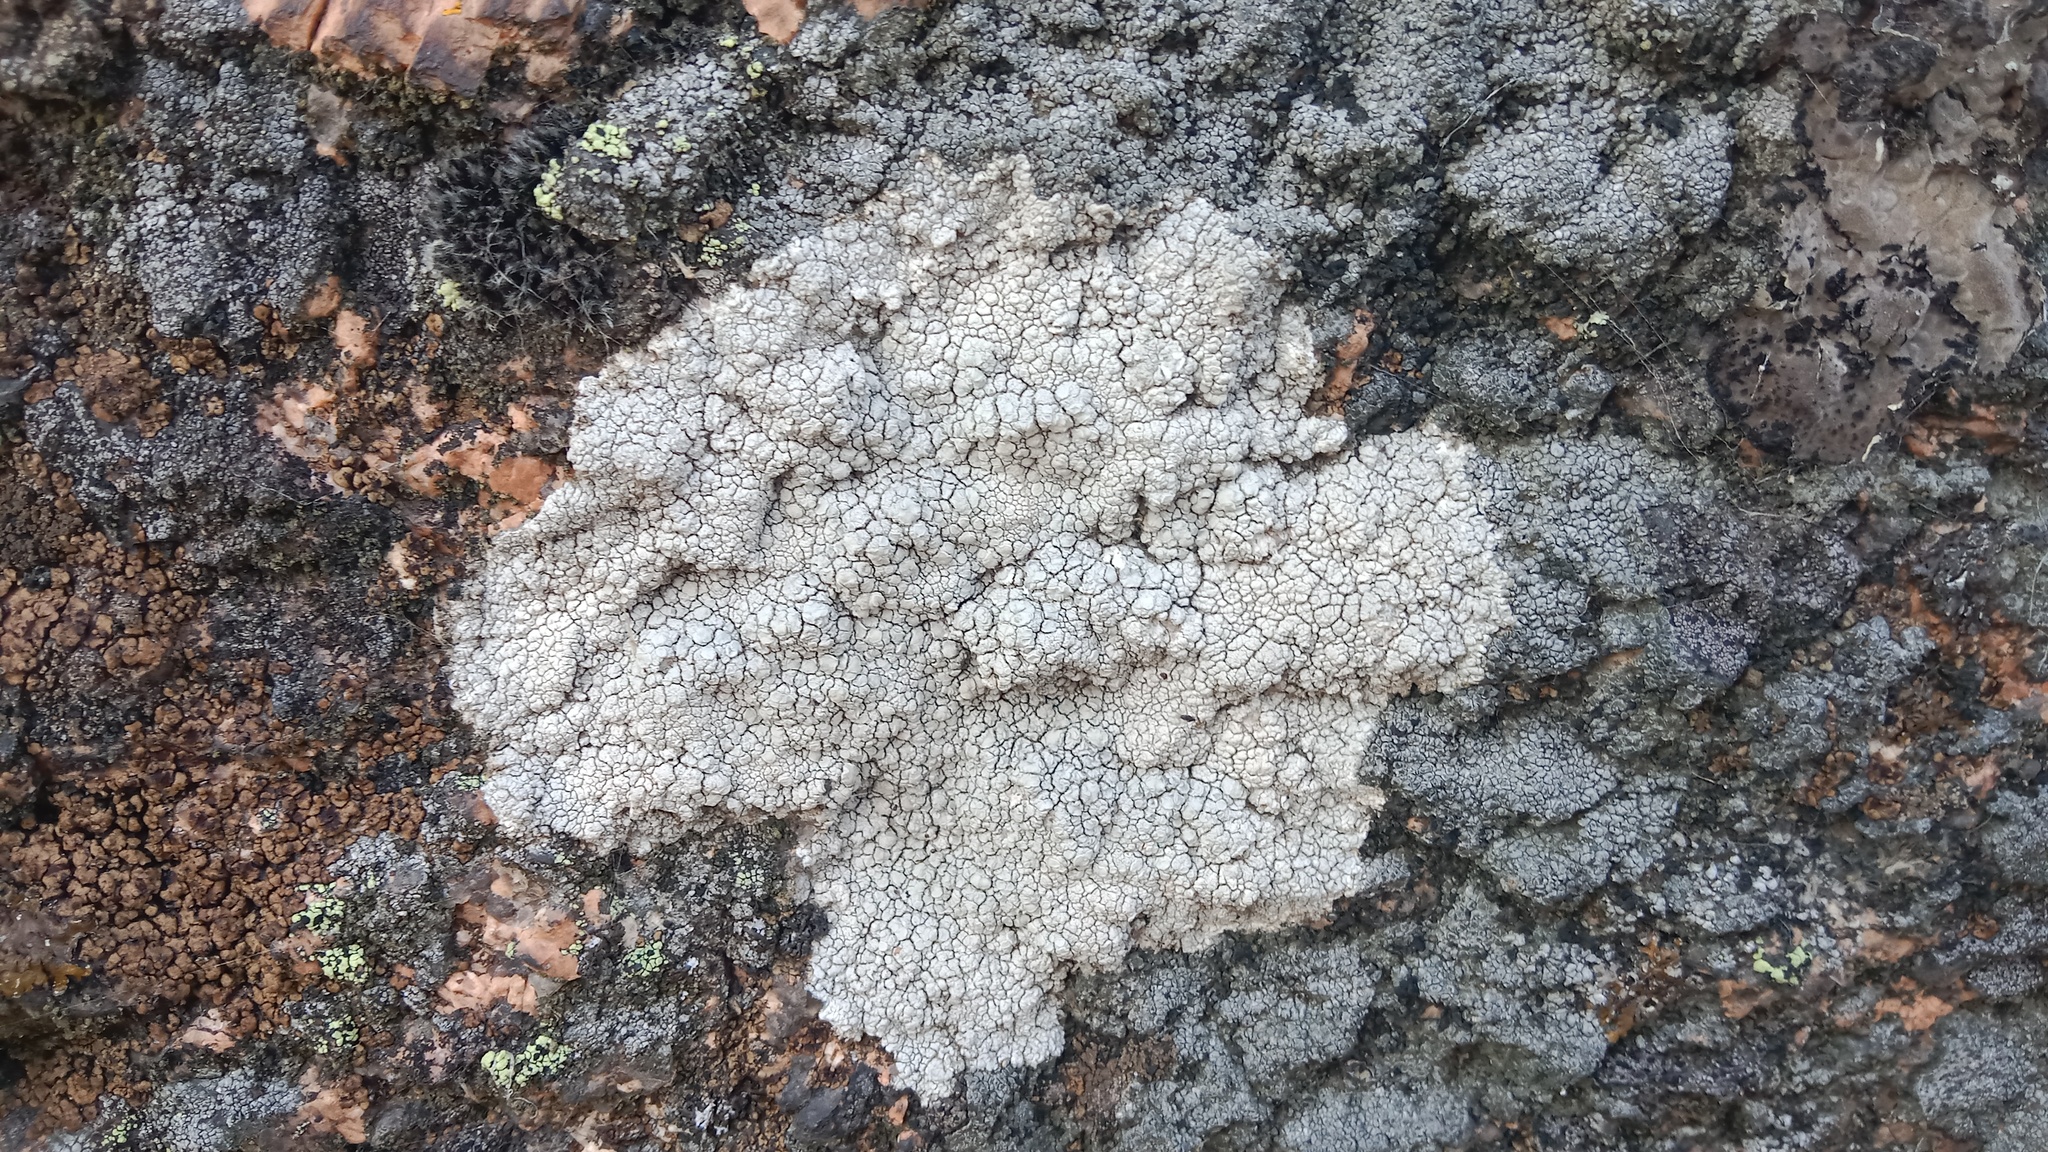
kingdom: Fungi
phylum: Ascomycota
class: Lecanoromycetes
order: Lecanorales
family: Lecanoraceae
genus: Glaucomaria
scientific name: Glaucomaria rupicola
